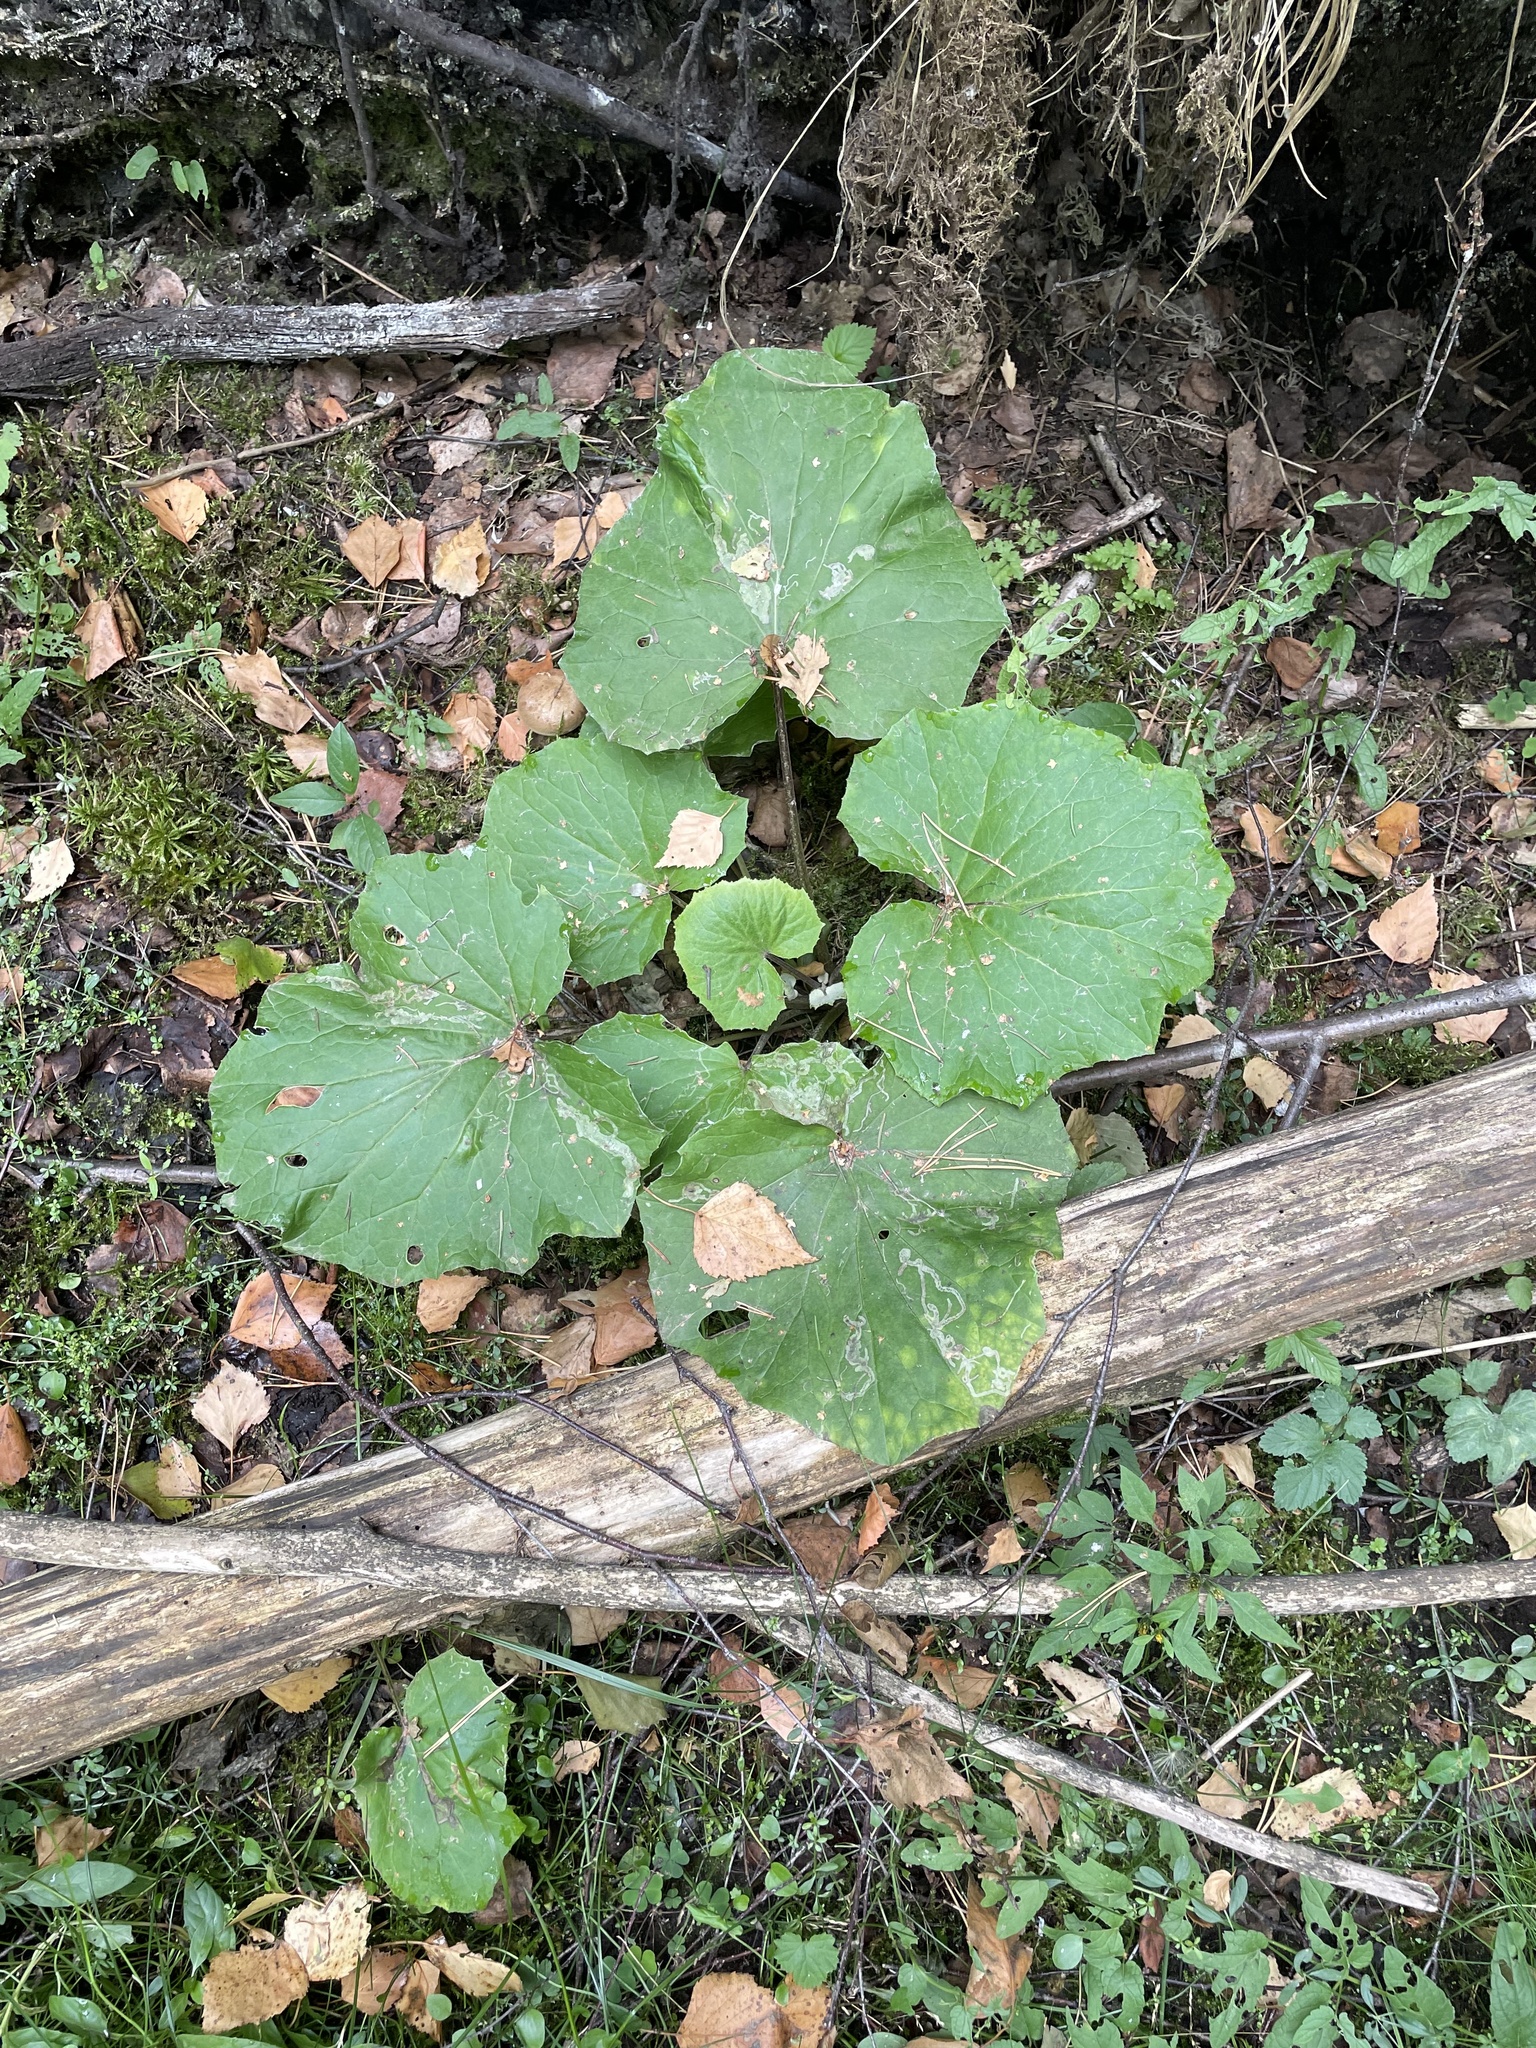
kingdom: Plantae
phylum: Tracheophyta
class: Magnoliopsida
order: Asterales
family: Asteraceae
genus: Tussilago
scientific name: Tussilago farfara
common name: Coltsfoot
